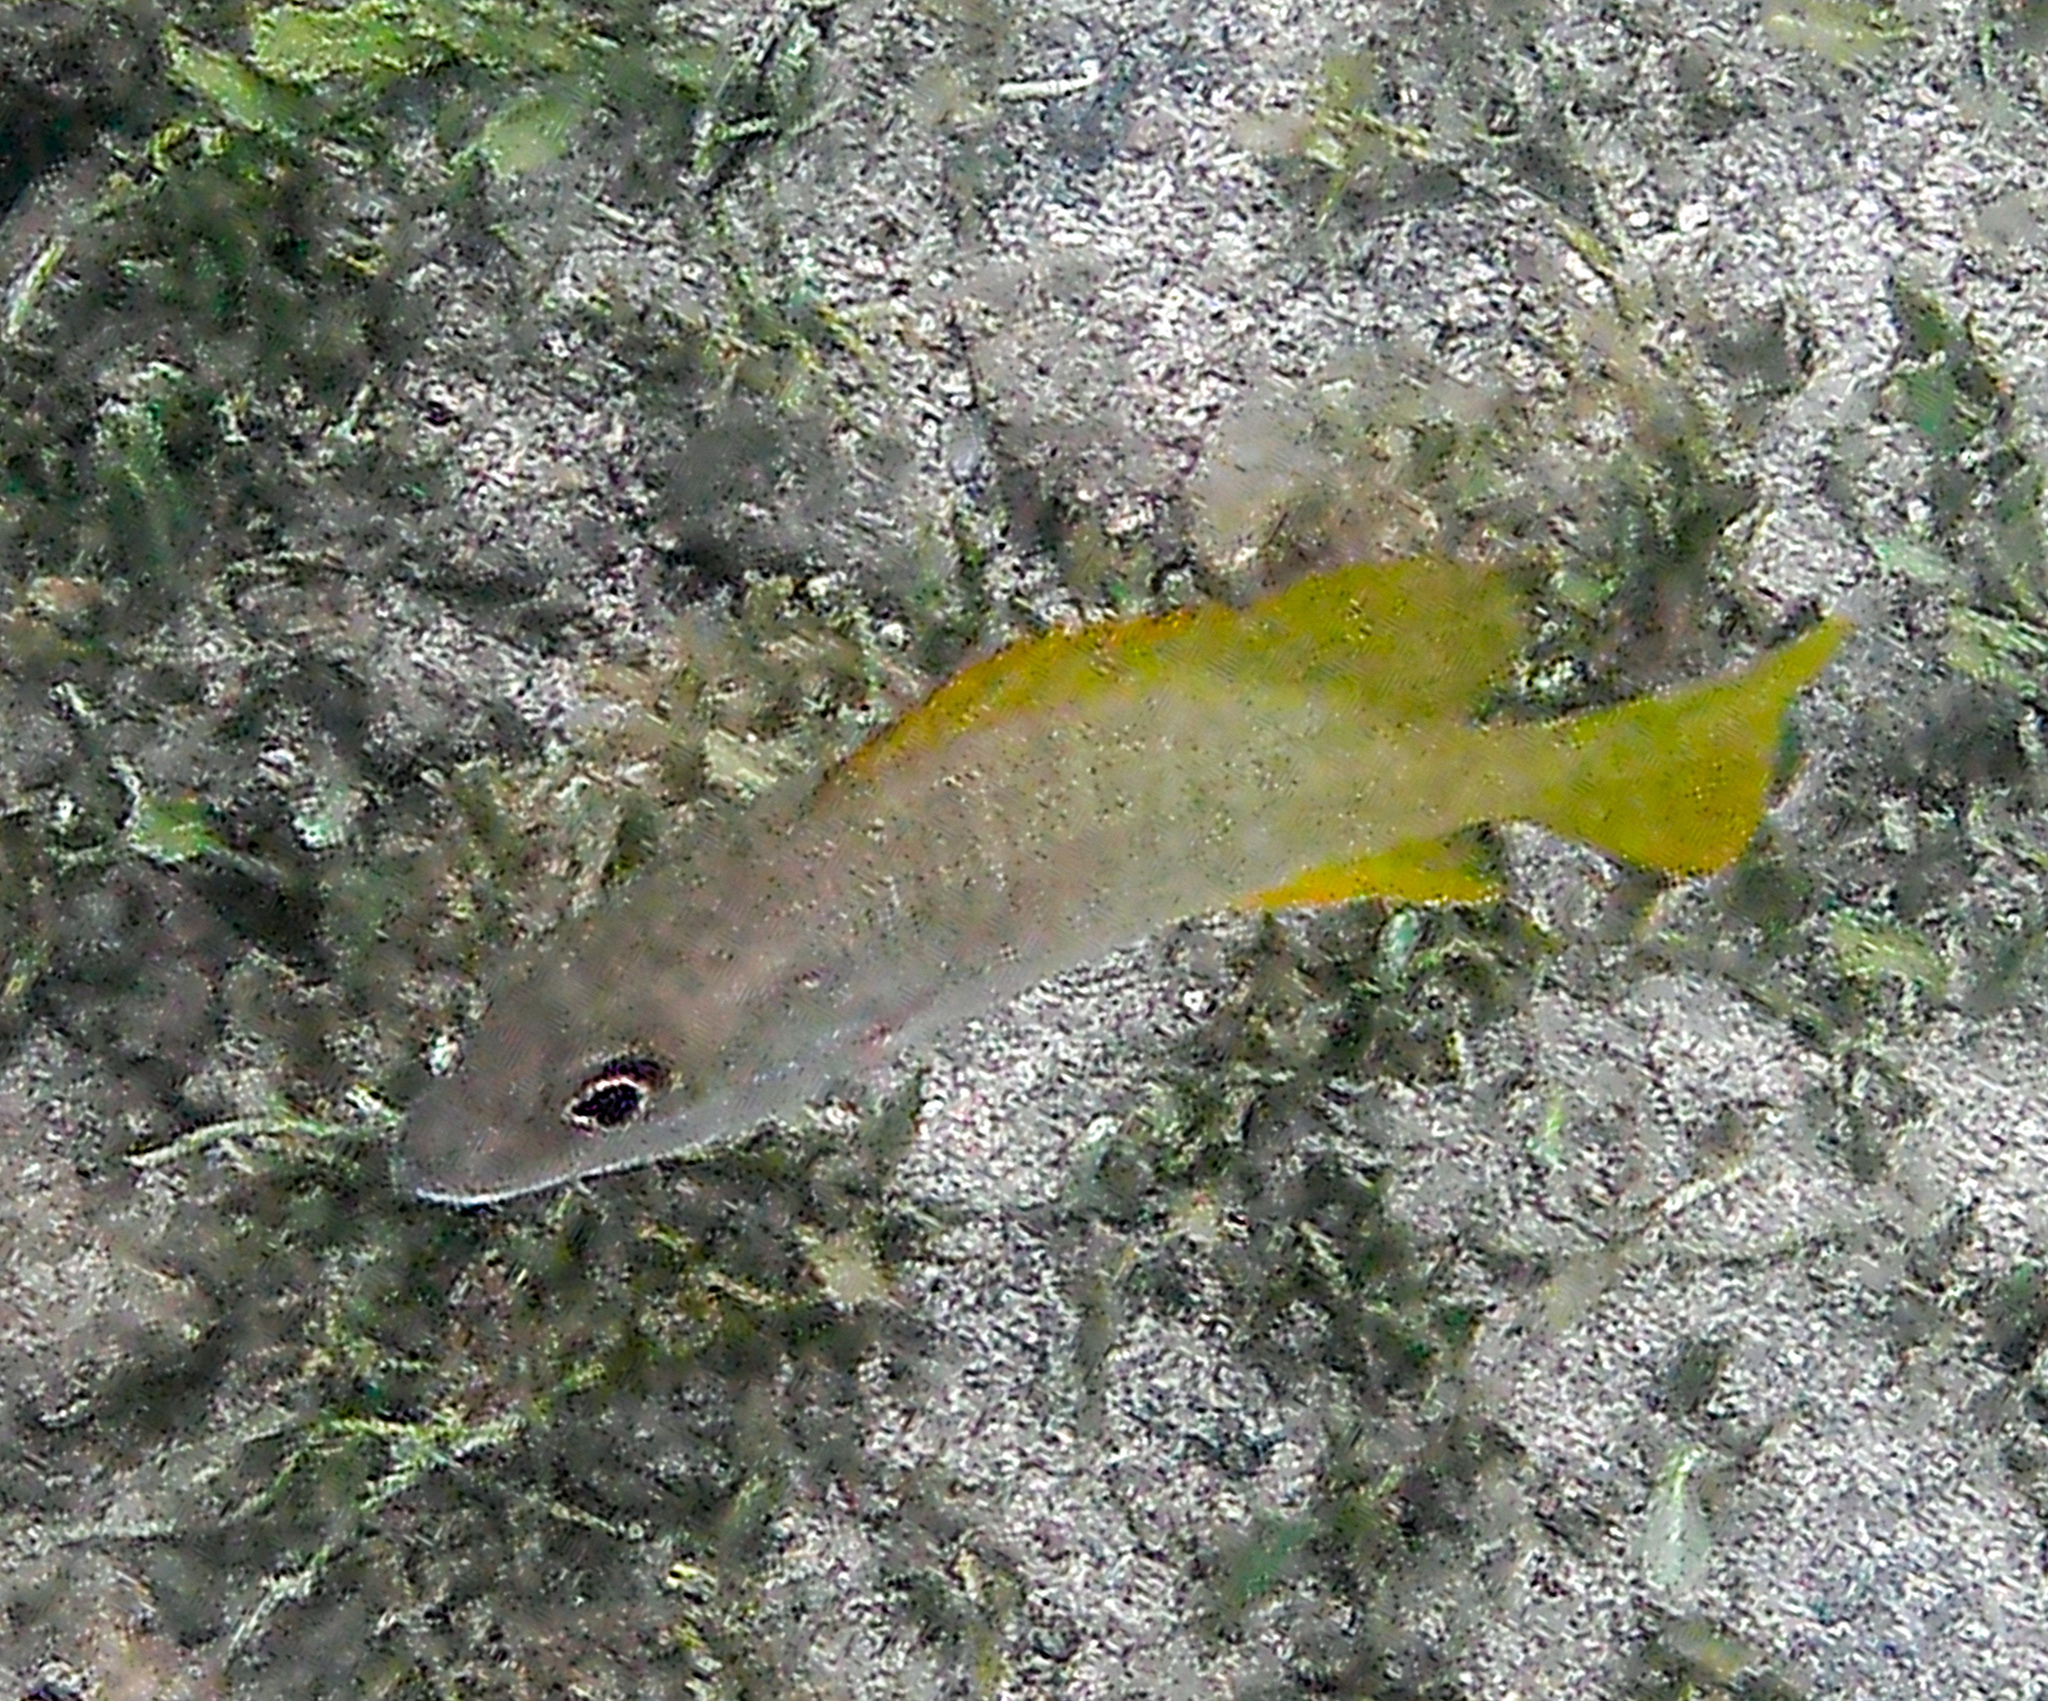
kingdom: Animalia
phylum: Chordata
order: Perciformes
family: Lutjanidae
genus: Lutjanus
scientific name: Lutjanus argentiventris
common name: Yellow snapper
